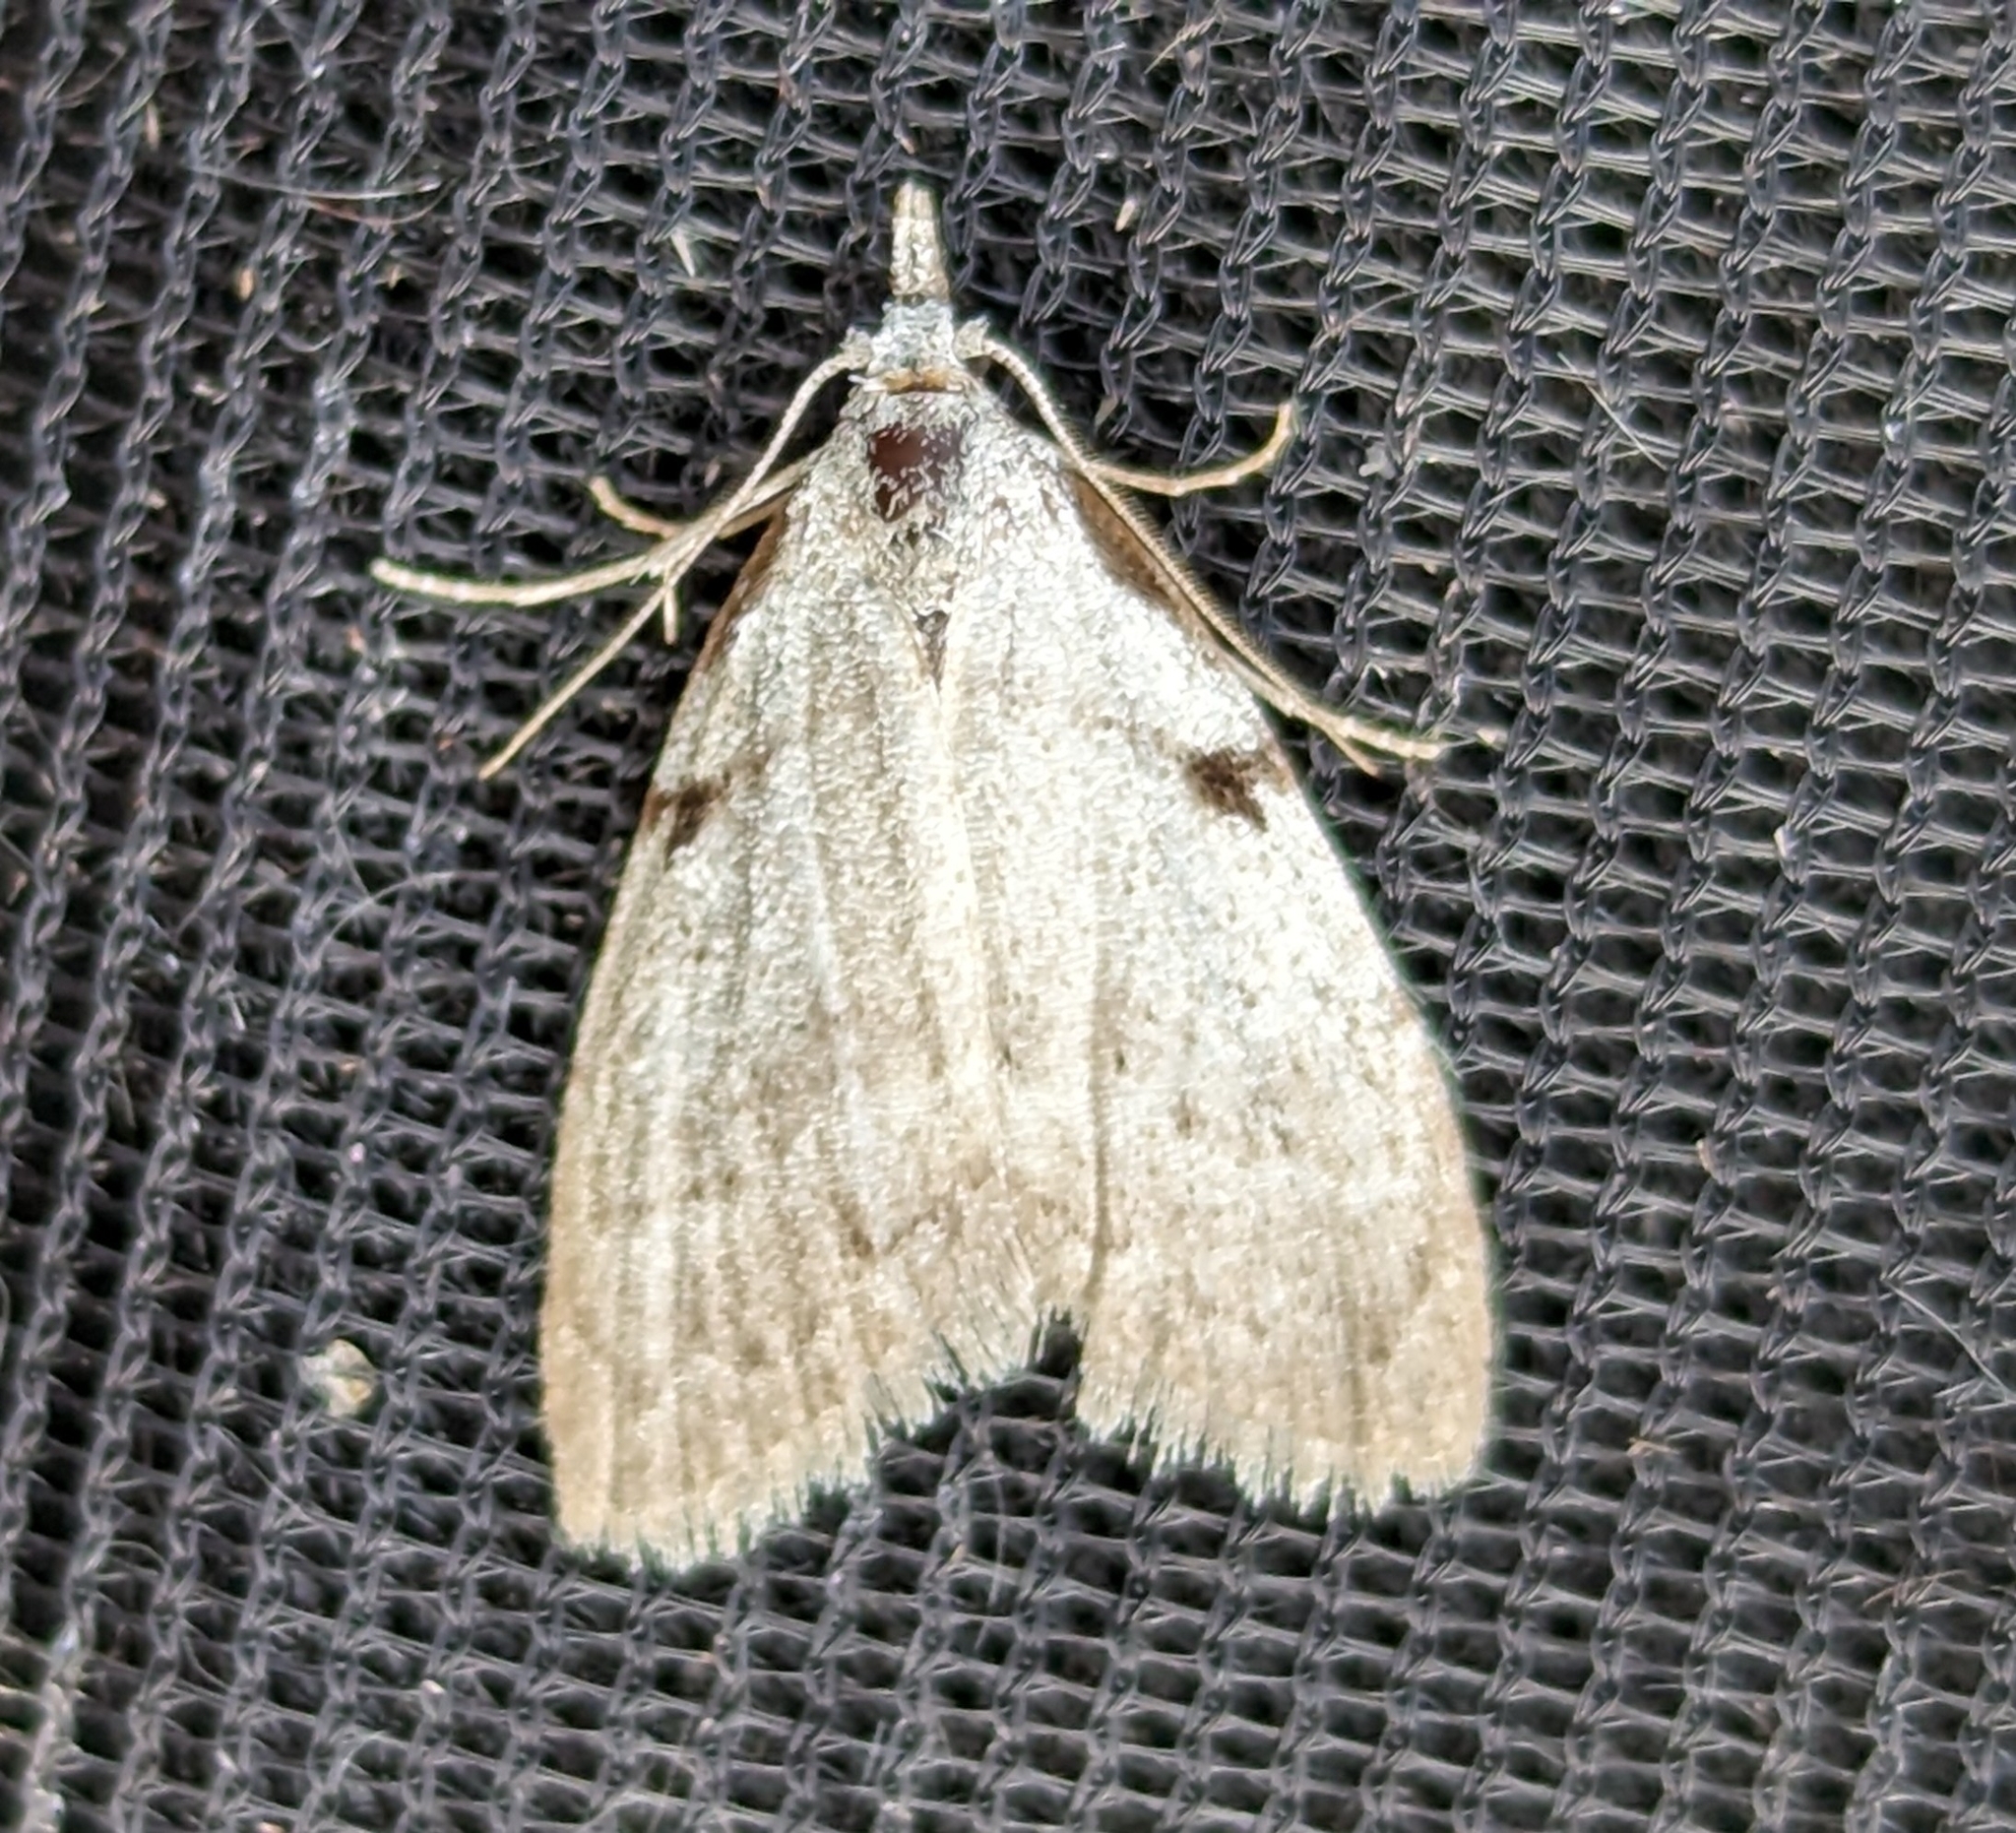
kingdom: Animalia
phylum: Arthropoda
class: Insecta
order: Lepidoptera
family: Nolidae
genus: Nola
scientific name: Nola minna
